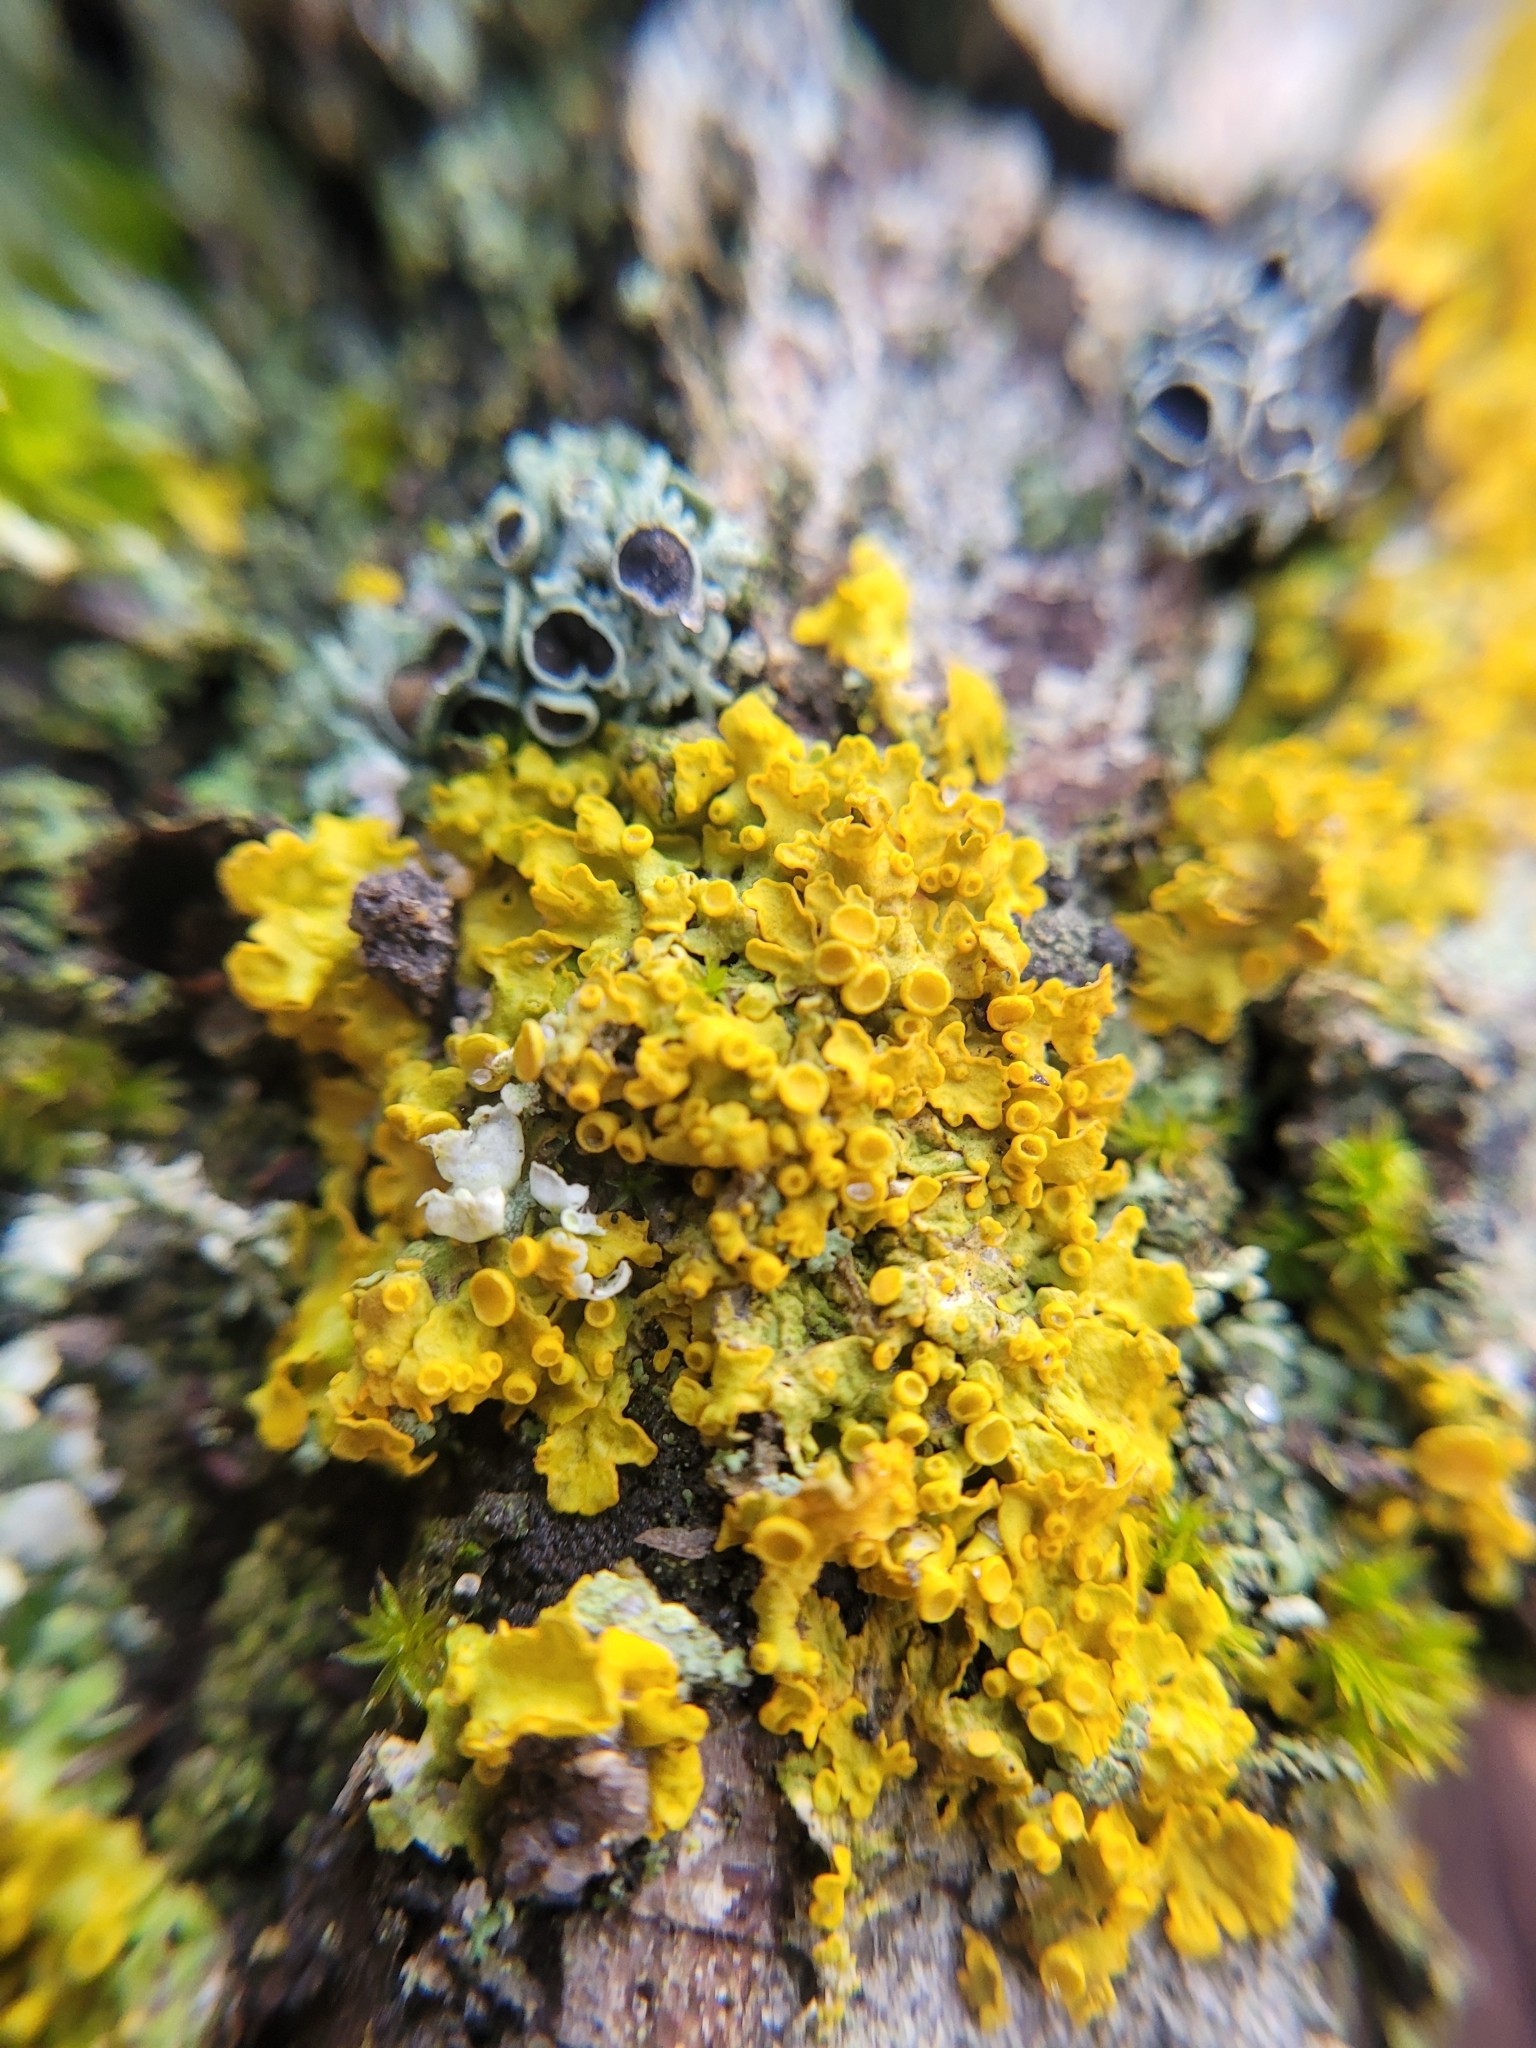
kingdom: Fungi
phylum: Ascomycota
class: Lecanoromycetes
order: Teloschistales
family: Teloschistaceae
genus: Xanthoria
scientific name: Xanthoria parietina
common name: Common orange lichen
